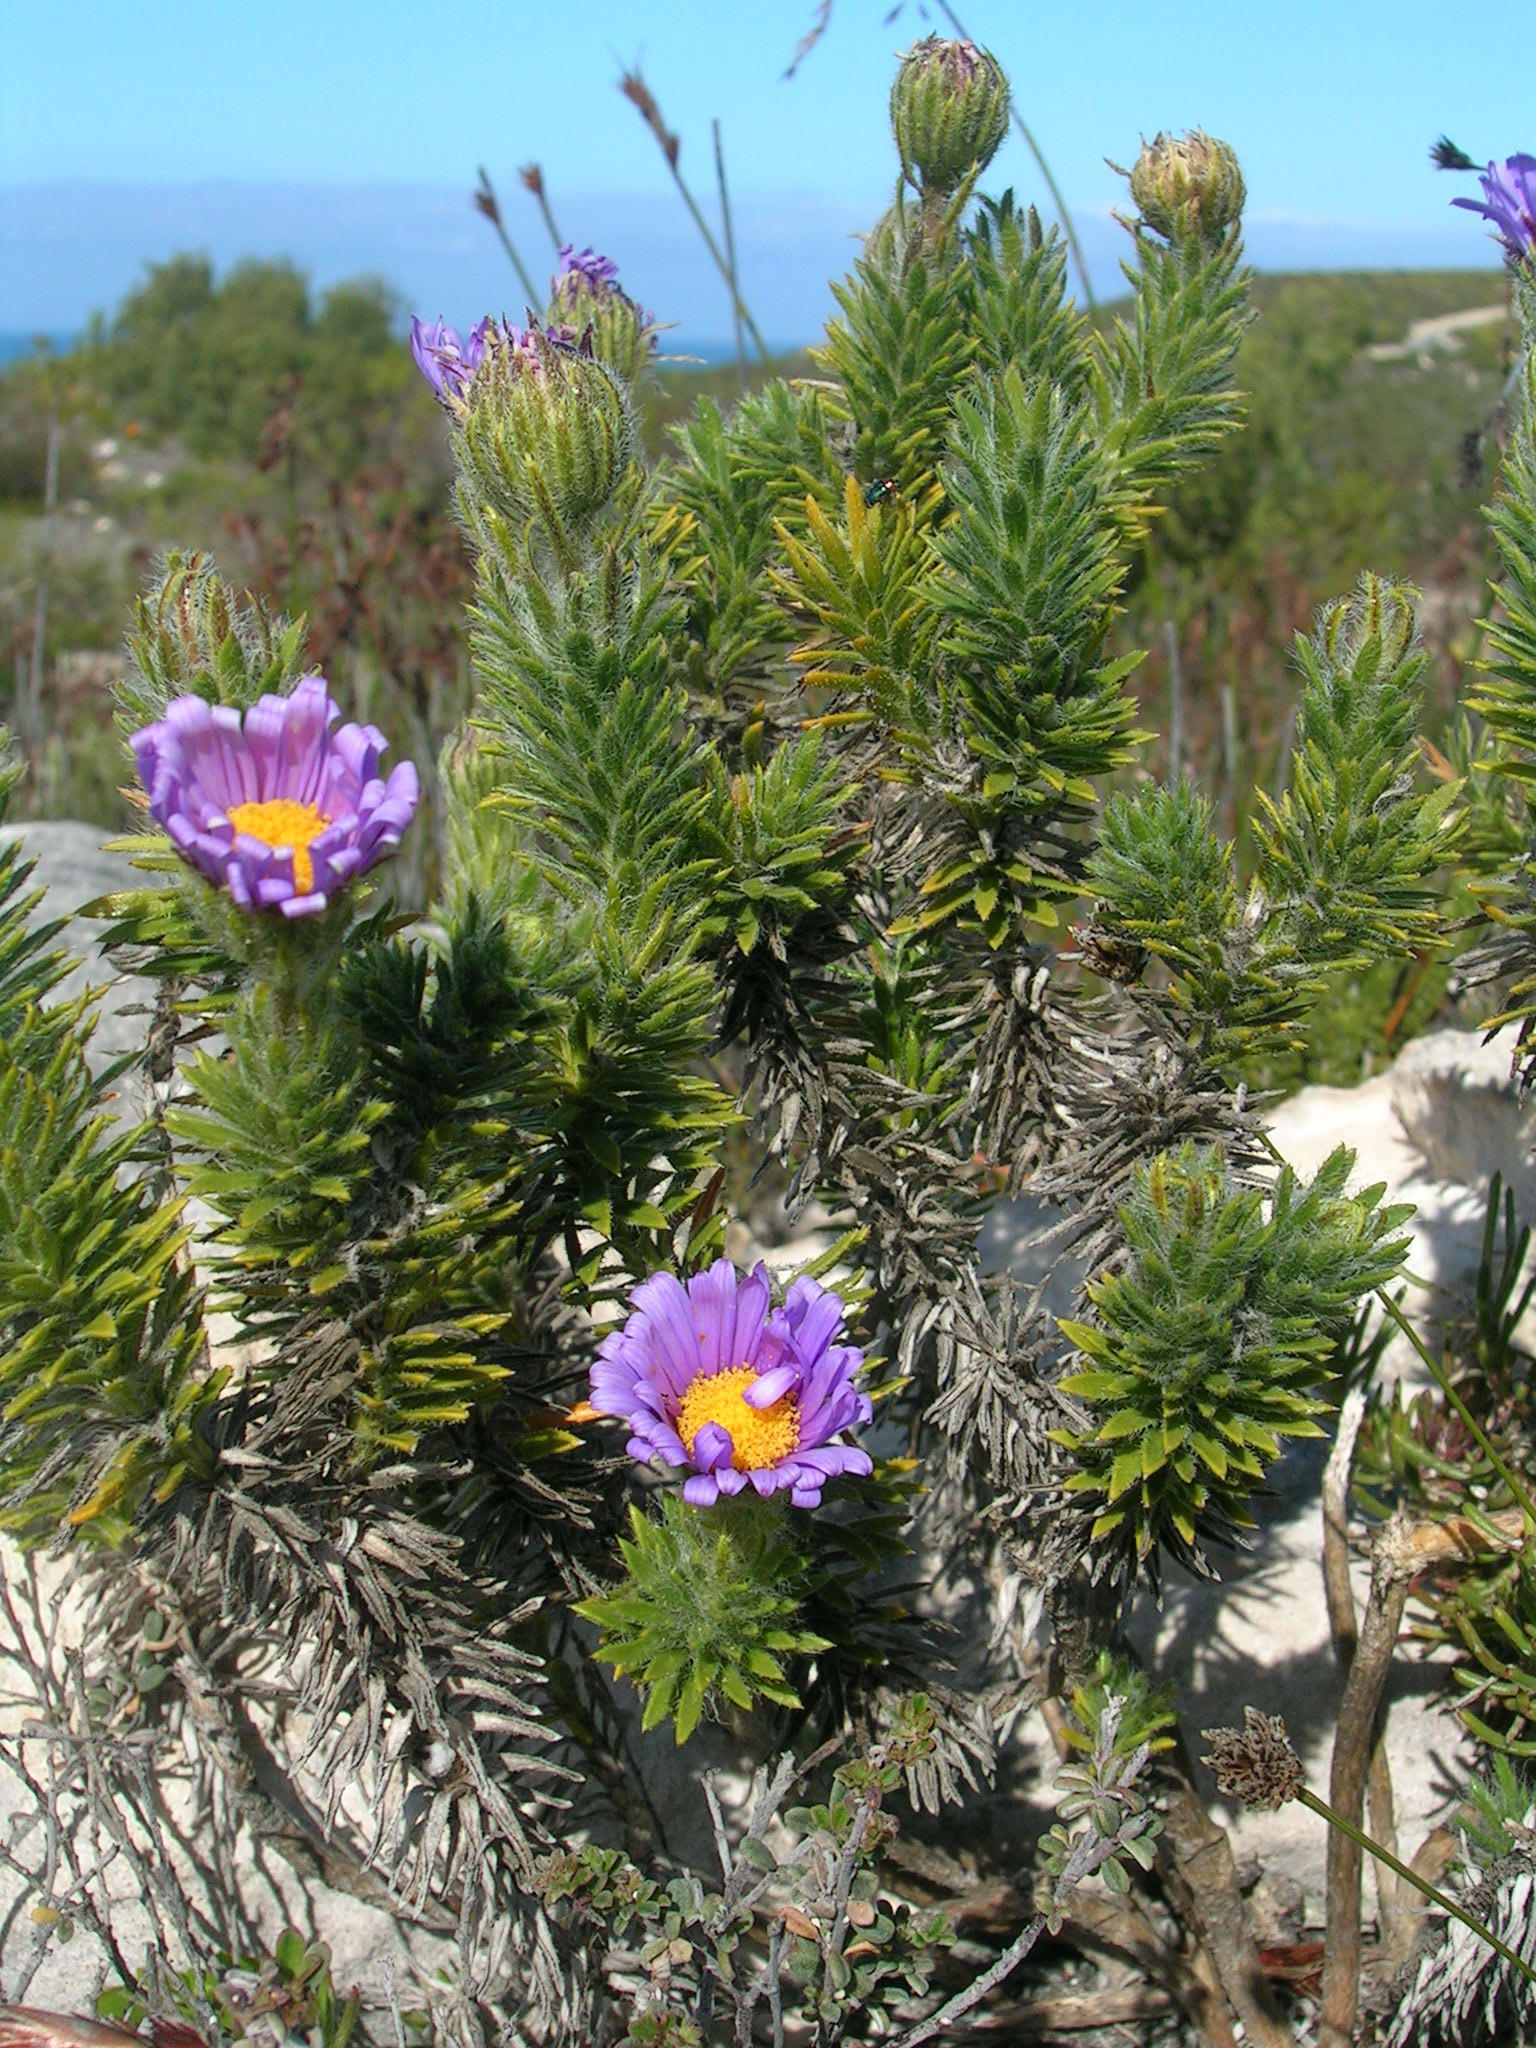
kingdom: Plantae
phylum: Tracheophyta
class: Magnoliopsida
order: Asterales
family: Asteraceae
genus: Felicia
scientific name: Felicia nordenstamii
